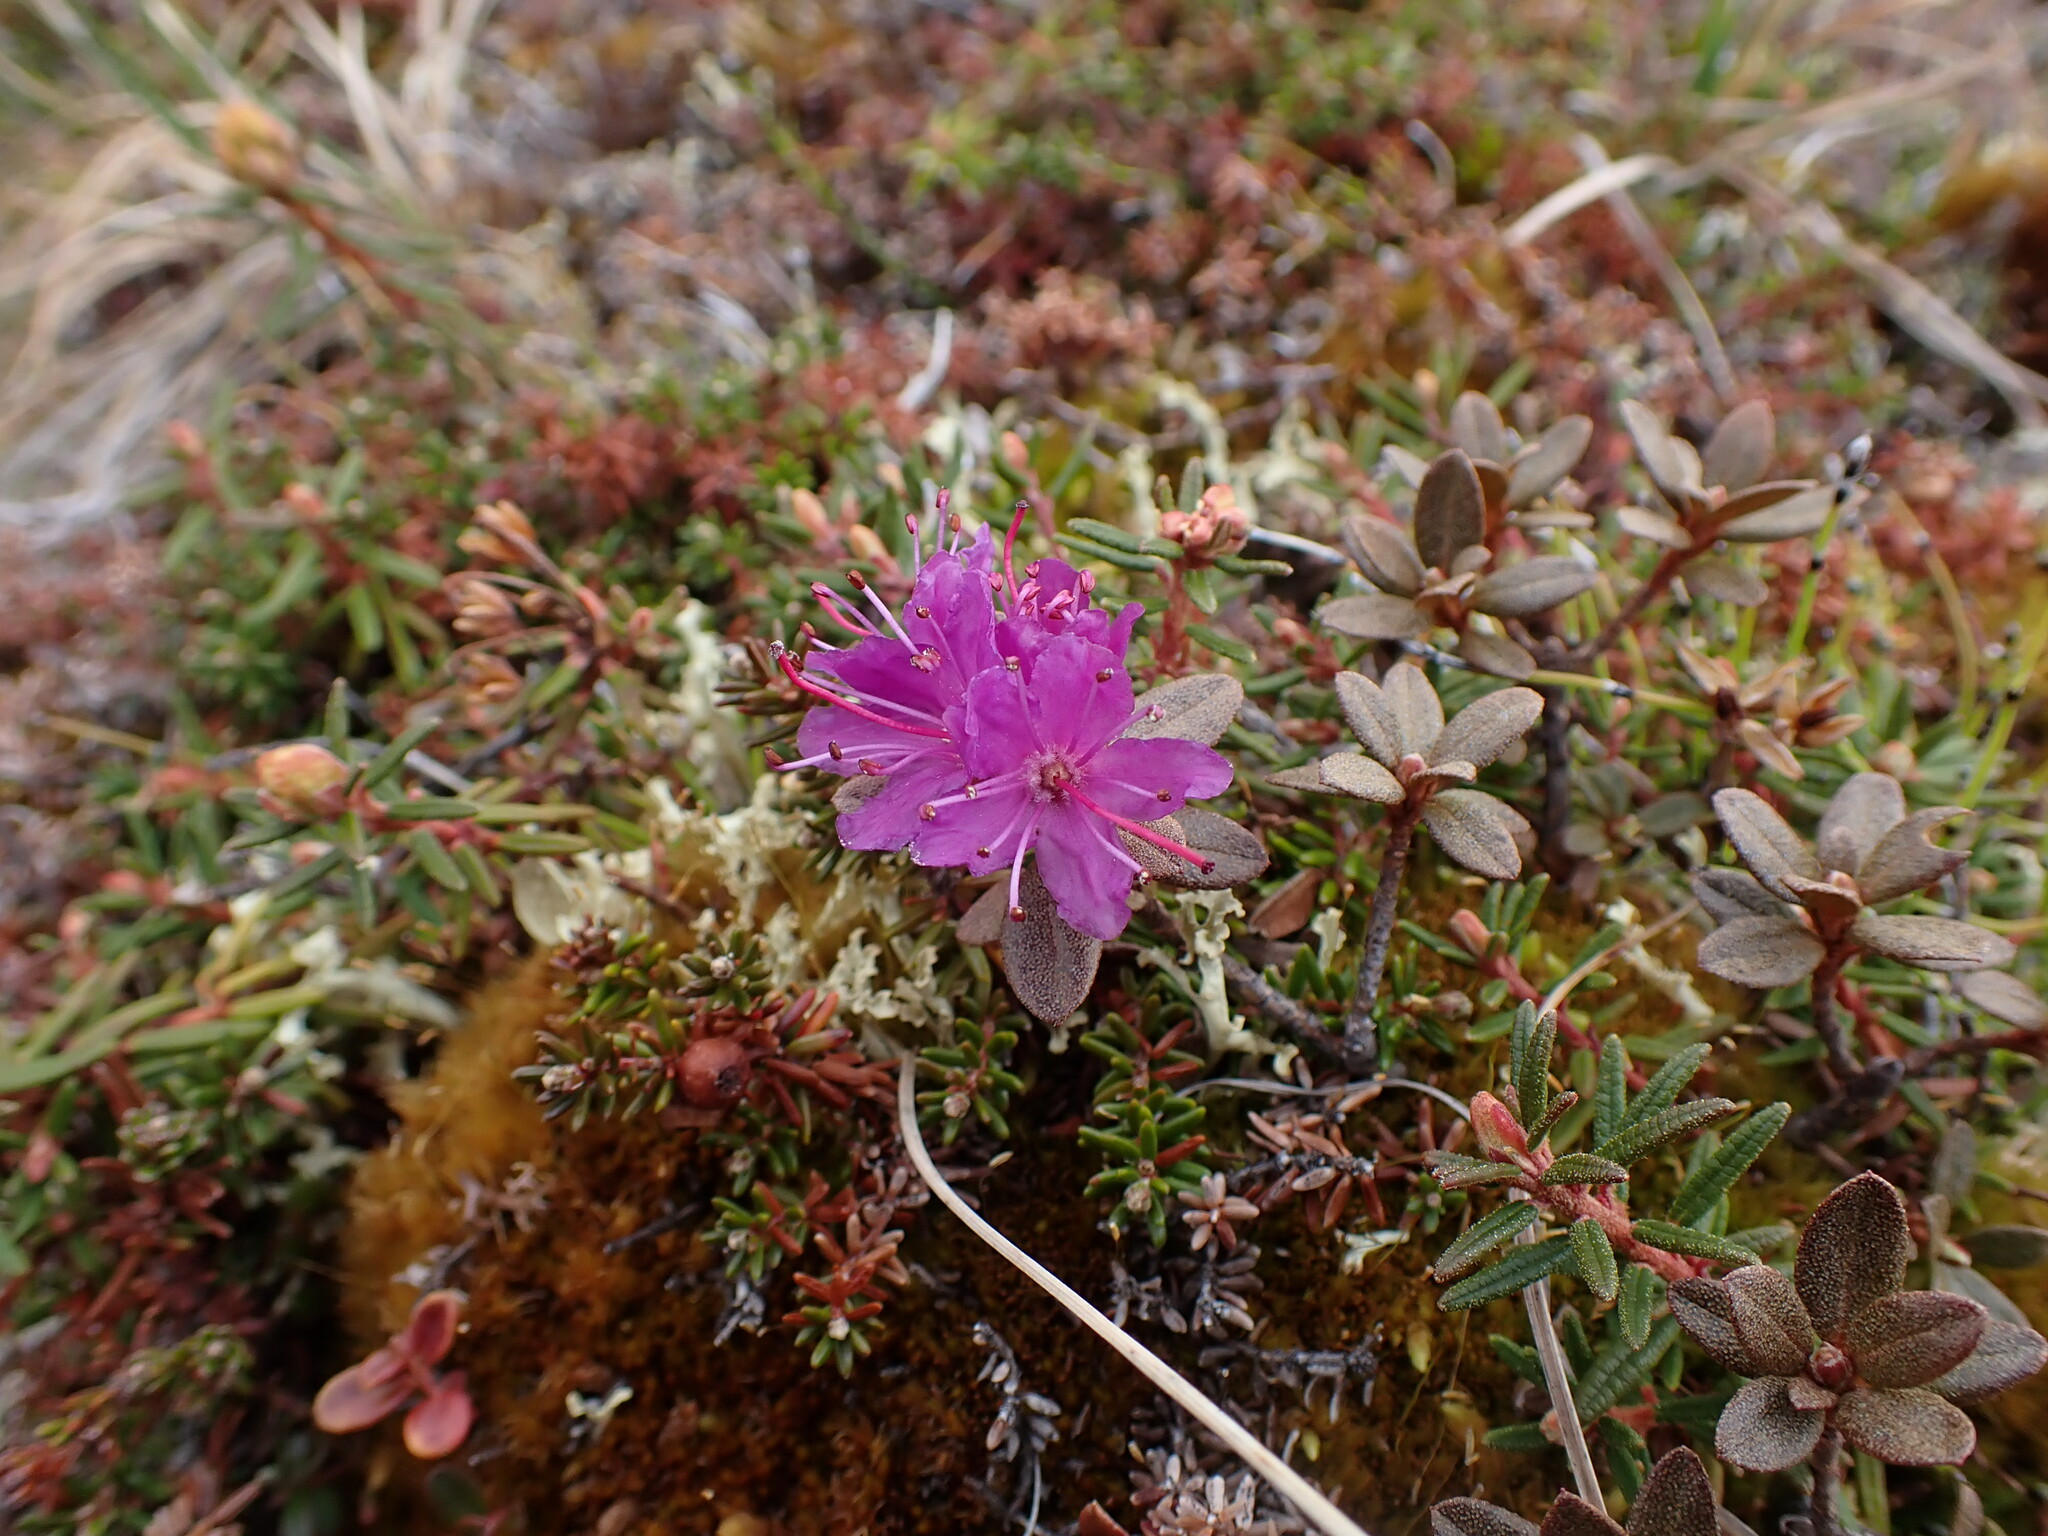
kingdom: Plantae
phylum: Tracheophyta
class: Magnoliopsida
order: Ericales
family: Ericaceae
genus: Rhododendron
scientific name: Rhododendron lapponicum
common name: Lapland rhododendron
